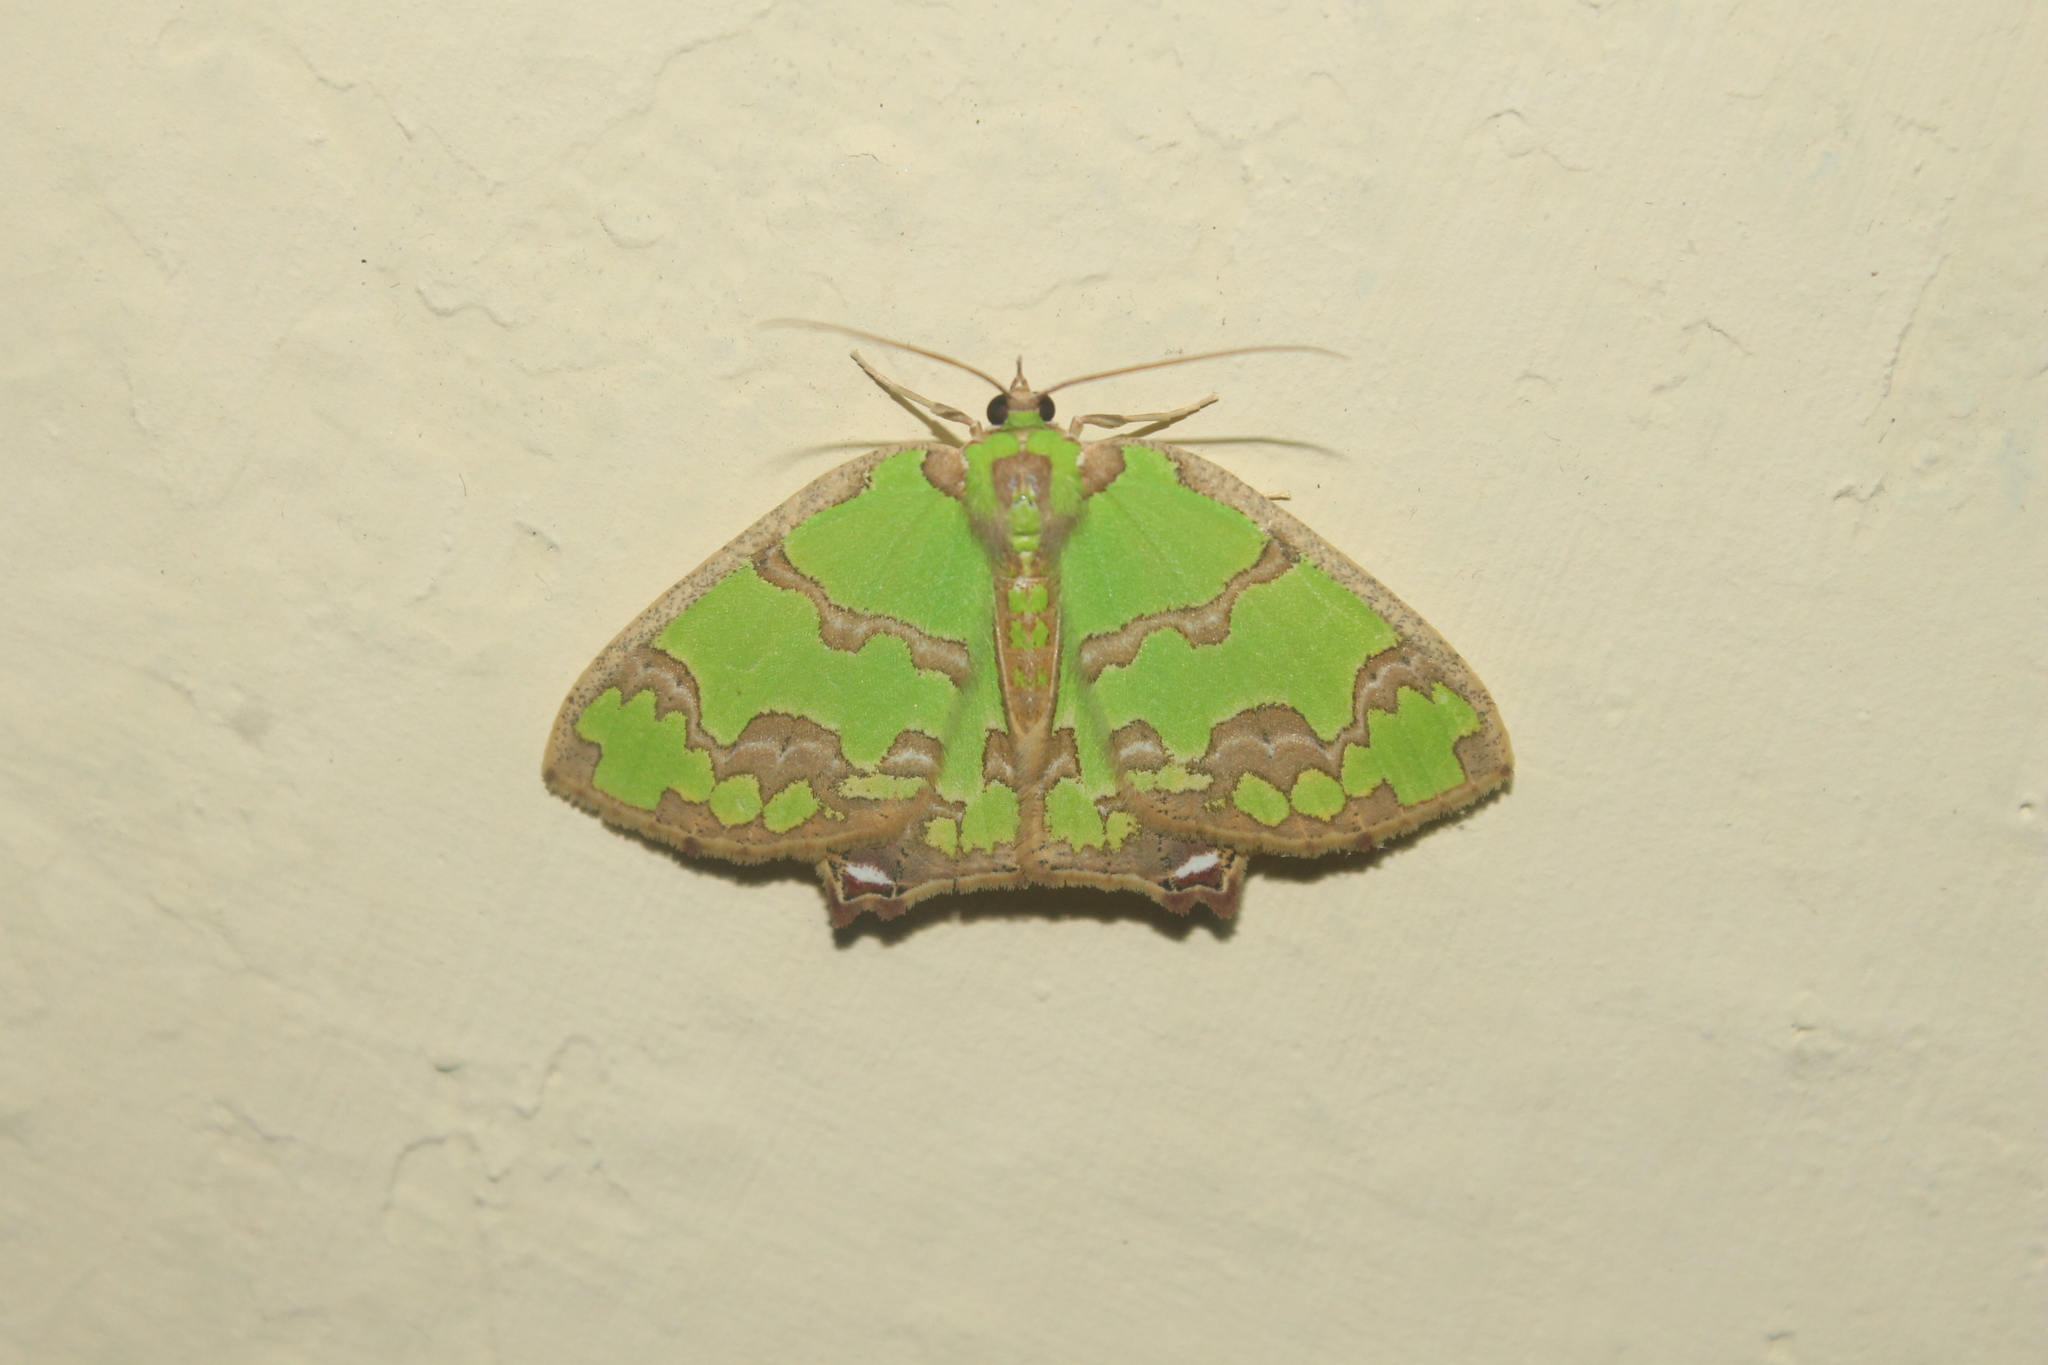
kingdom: Animalia
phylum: Arthropoda
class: Insecta
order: Lepidoptera
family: Geometridae
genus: Agathia
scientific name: Agathia hemithearia
